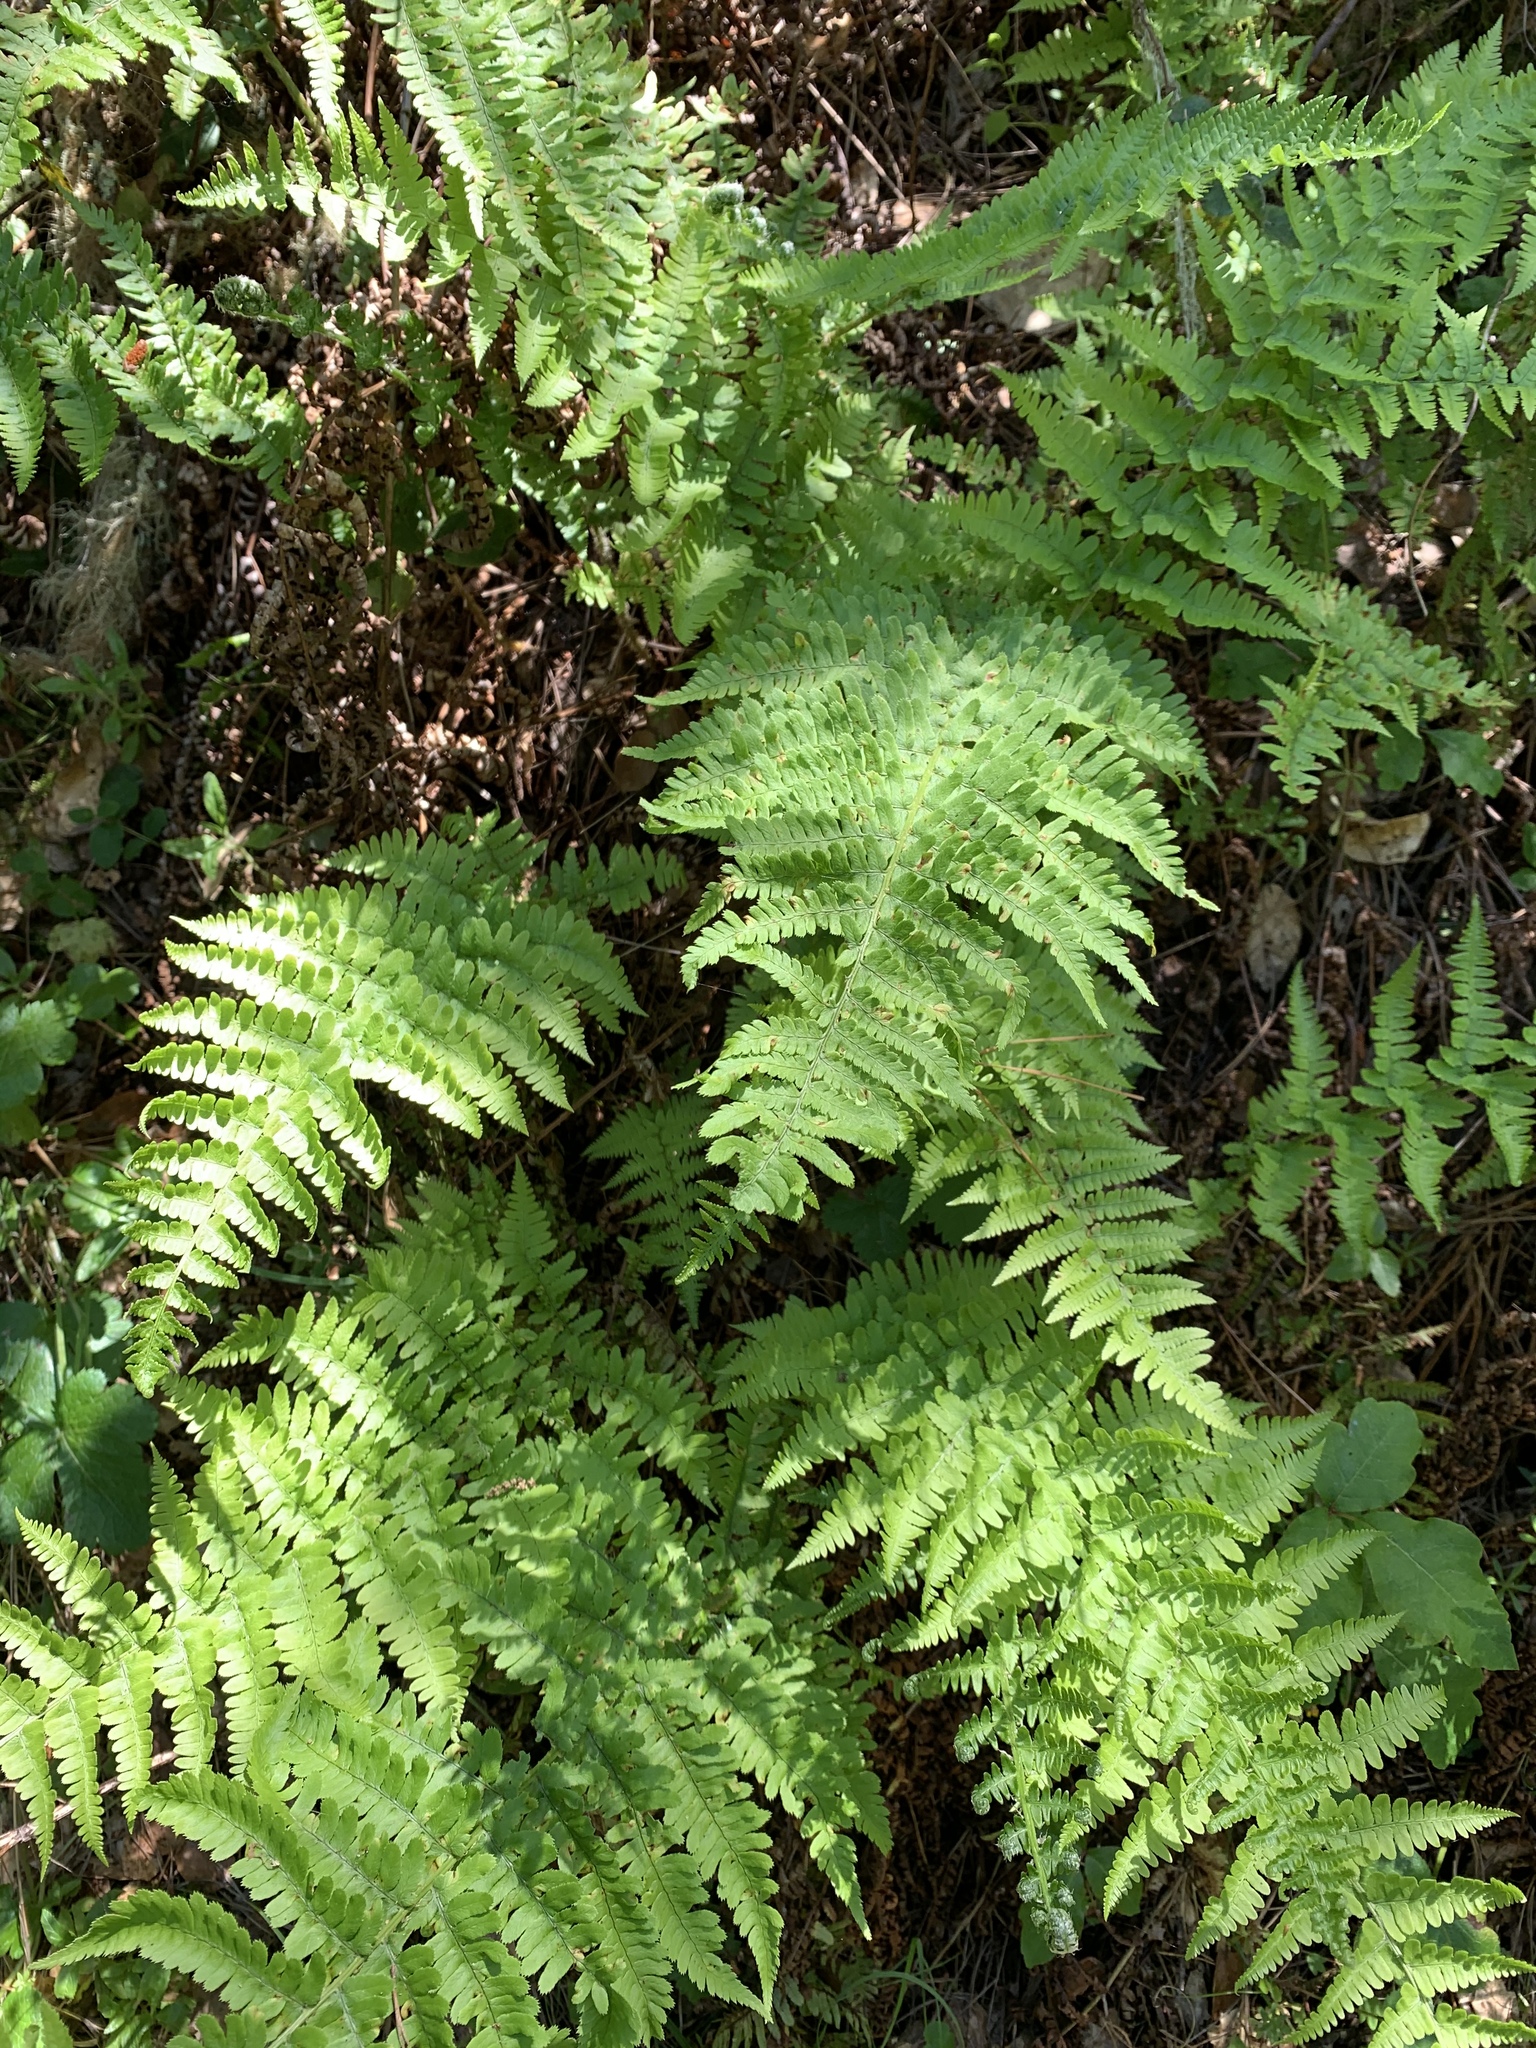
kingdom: Plantae
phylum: Tracheophyta
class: Polypodiopsida
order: Polypodiales
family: Dryopteridaceae
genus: Dryopteris
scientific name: Dryopteris arguta
